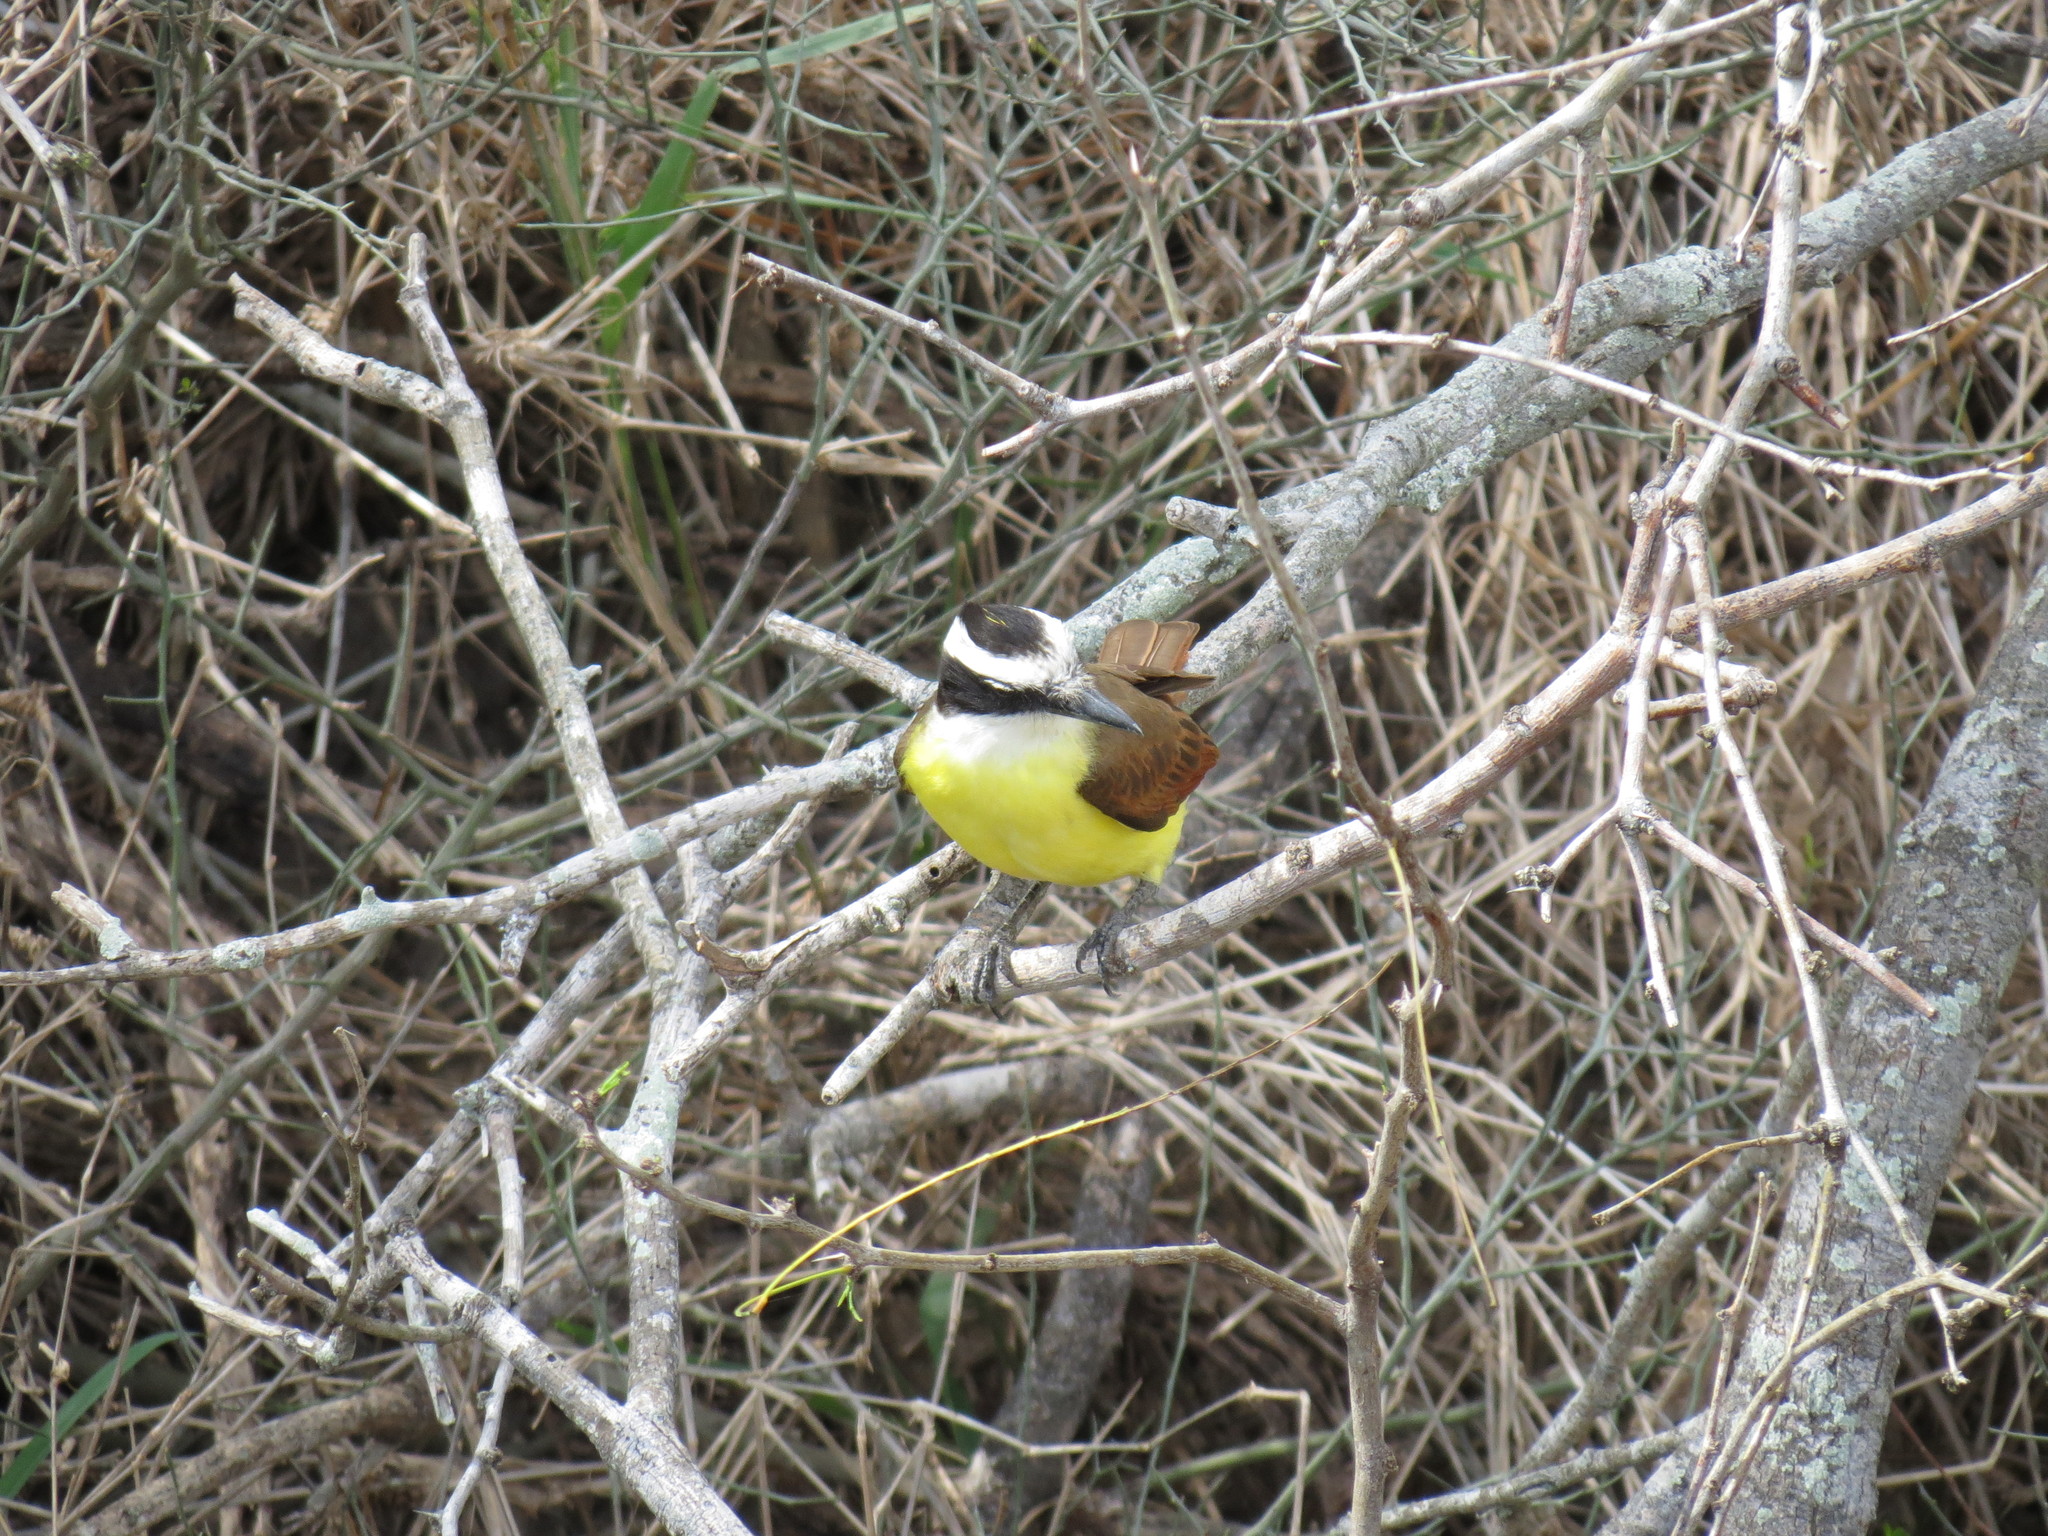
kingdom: Animalia
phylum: Chordata
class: Aves
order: Passeriformes
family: Tyrannidae
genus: Pitangus
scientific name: Pitangus sulphuratus
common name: Great kiskadee
